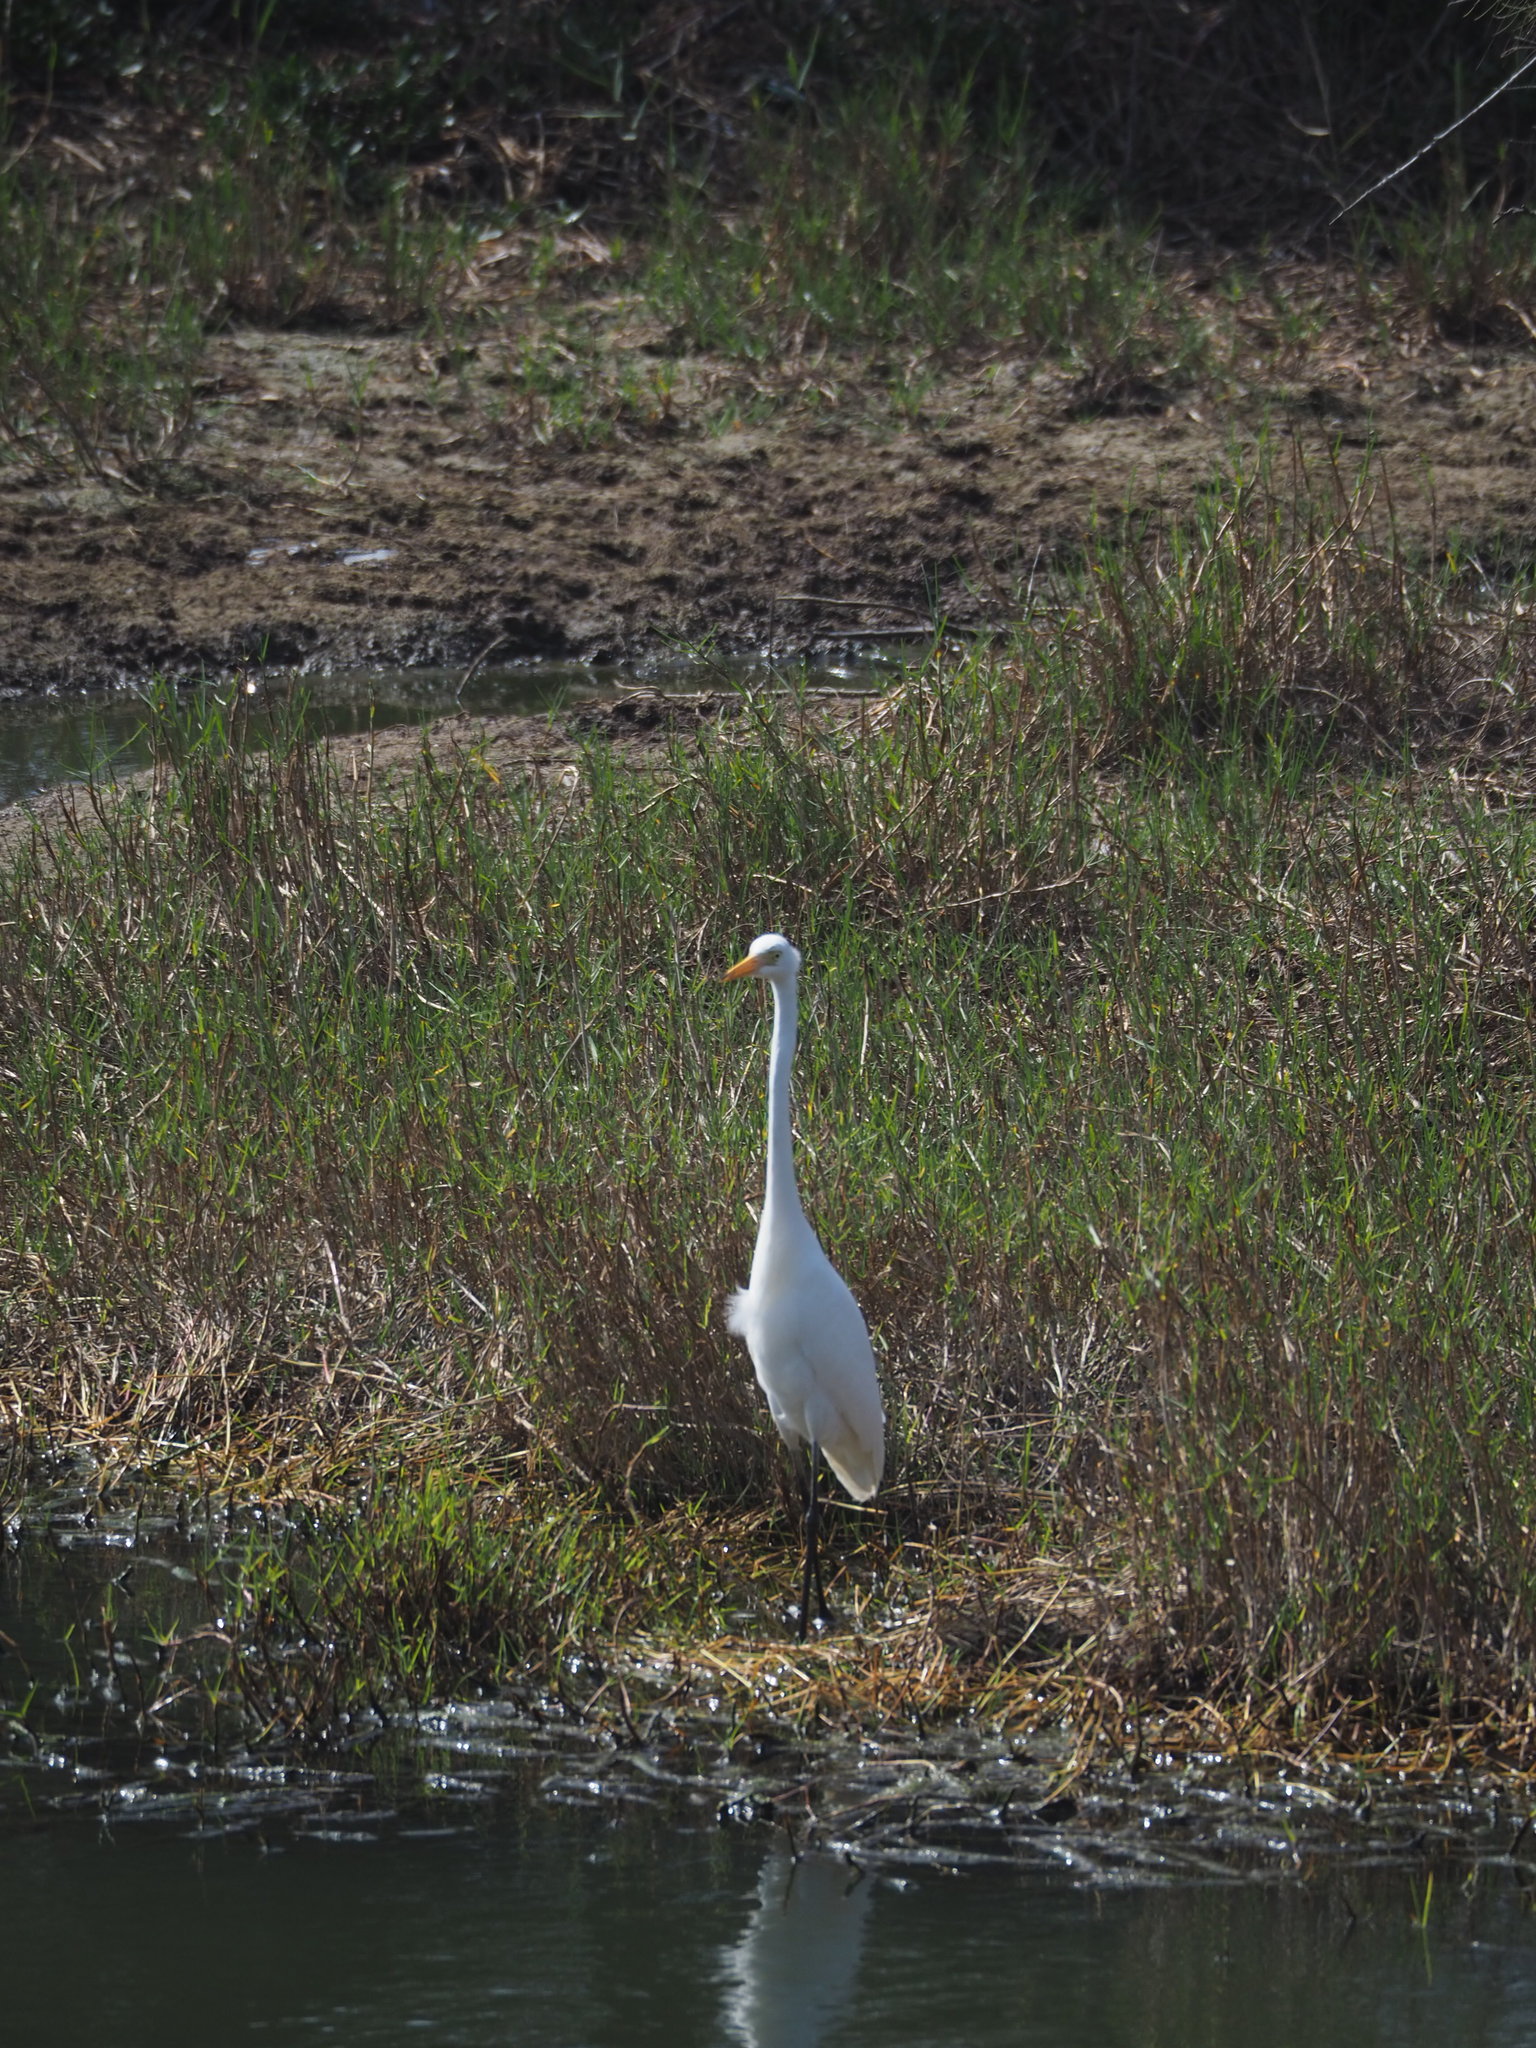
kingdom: Animalia
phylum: Chordata
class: Aves
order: Pelecaniformes
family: Ardeidae
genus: Egretta
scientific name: Egretta intermedia
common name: Intermediate egret
